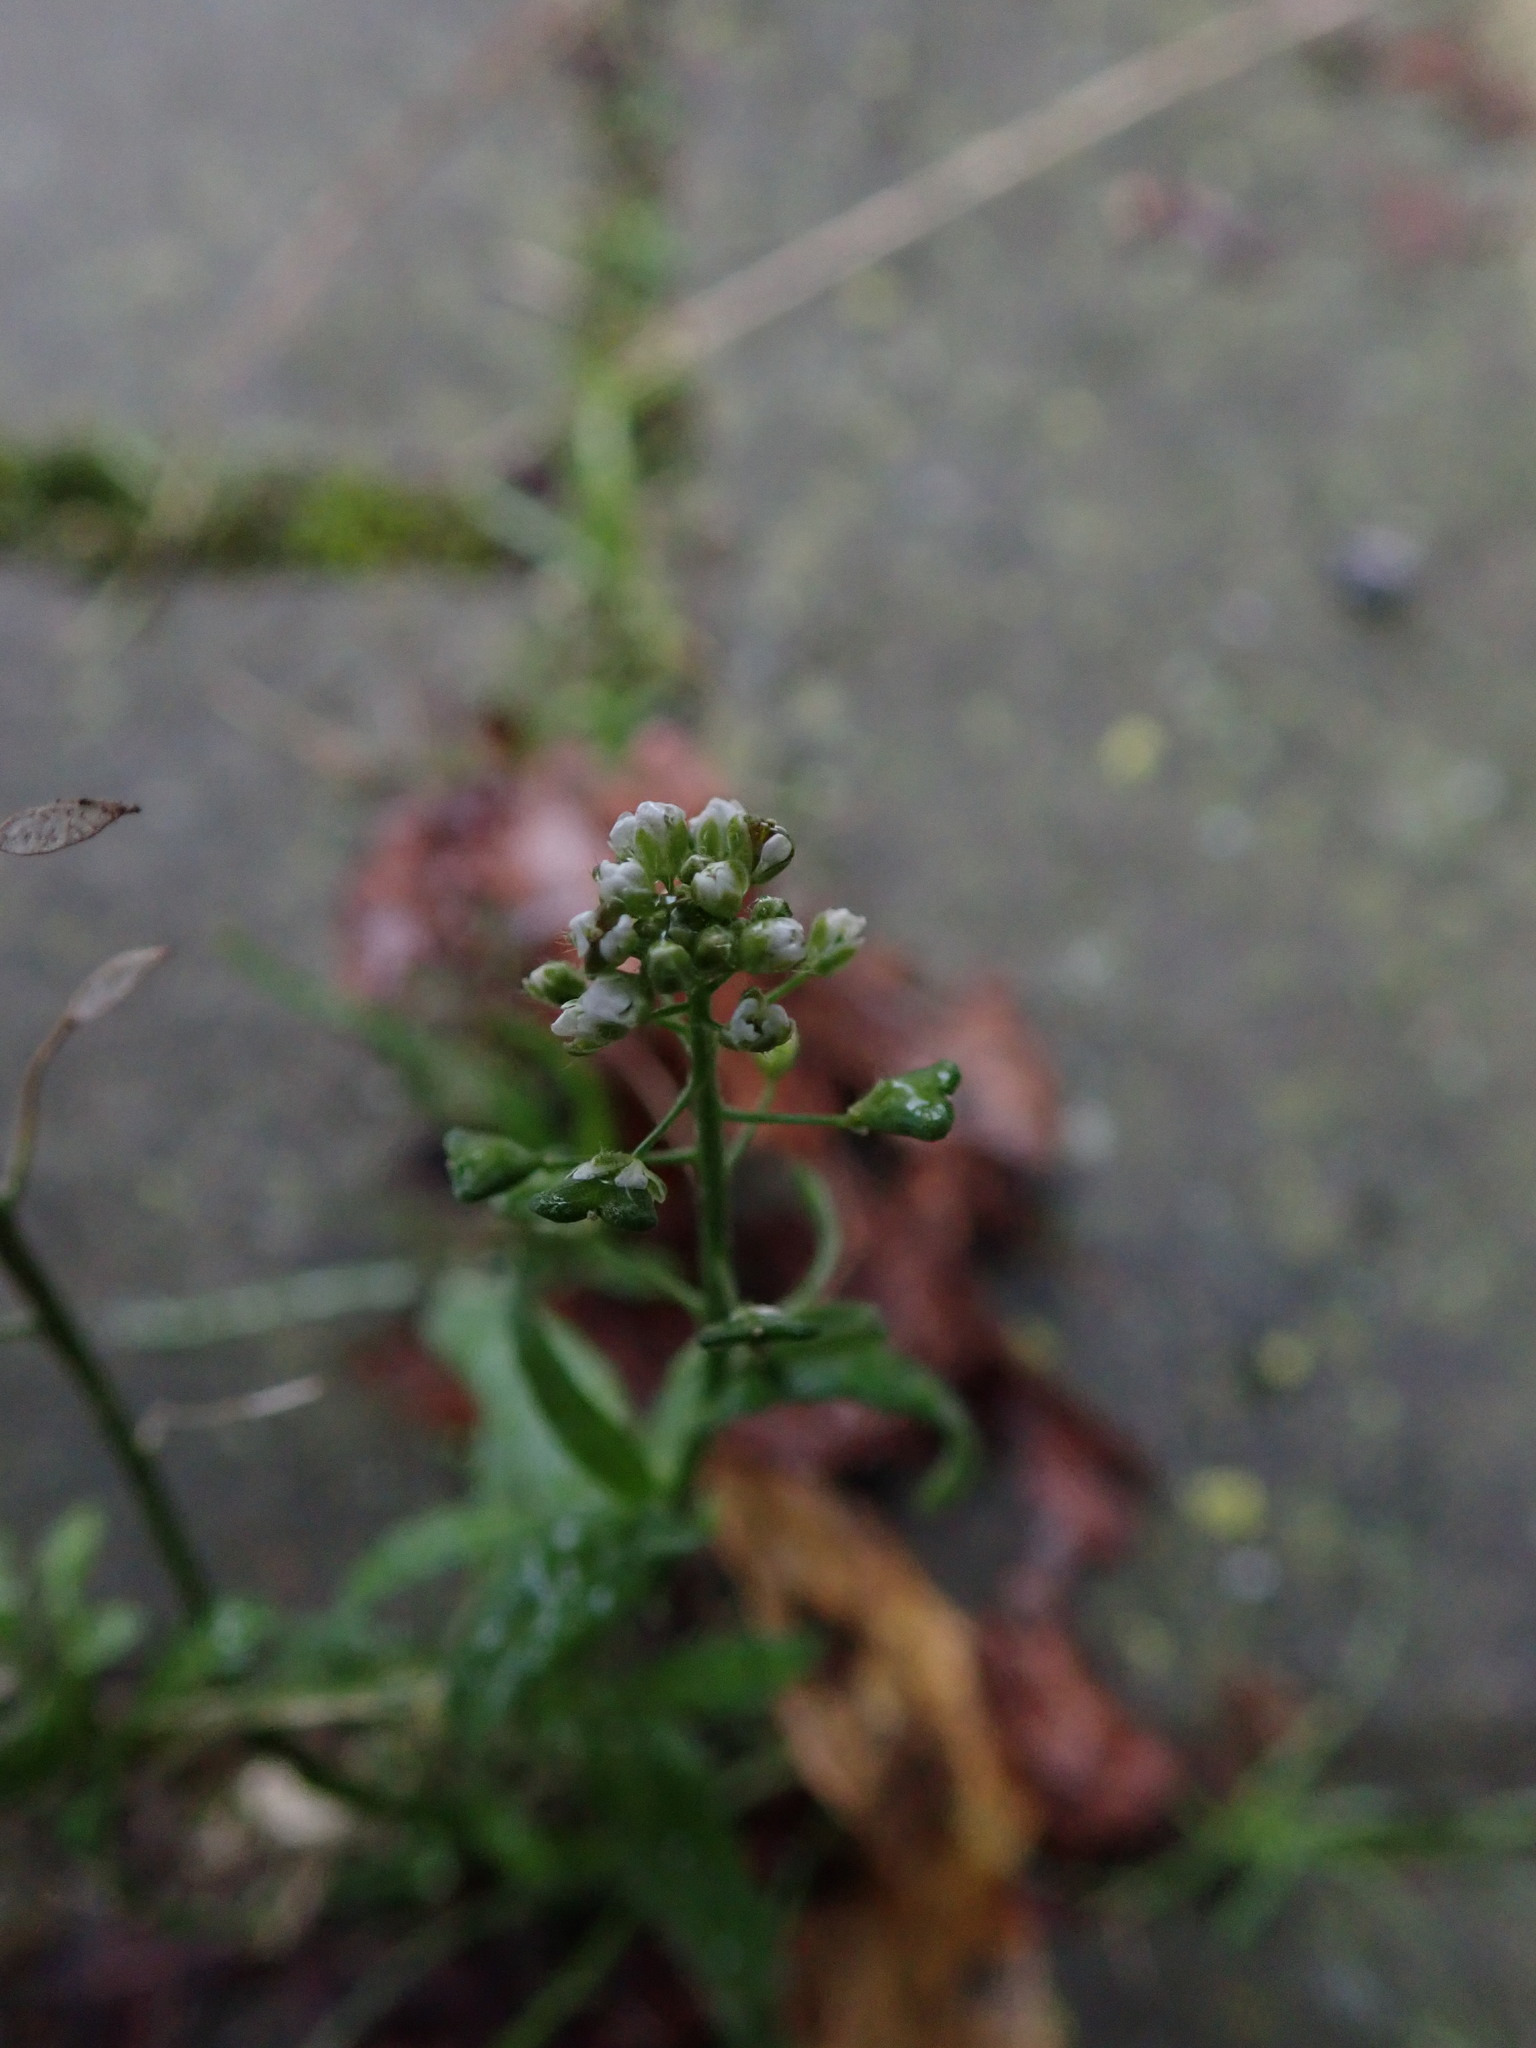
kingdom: Plantae
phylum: Tracheophyta
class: Magnoliopsida
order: Brassicales
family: Brassicaceae
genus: Capsella
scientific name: Capsella bursa-pastoris
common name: Shepherd's purse
